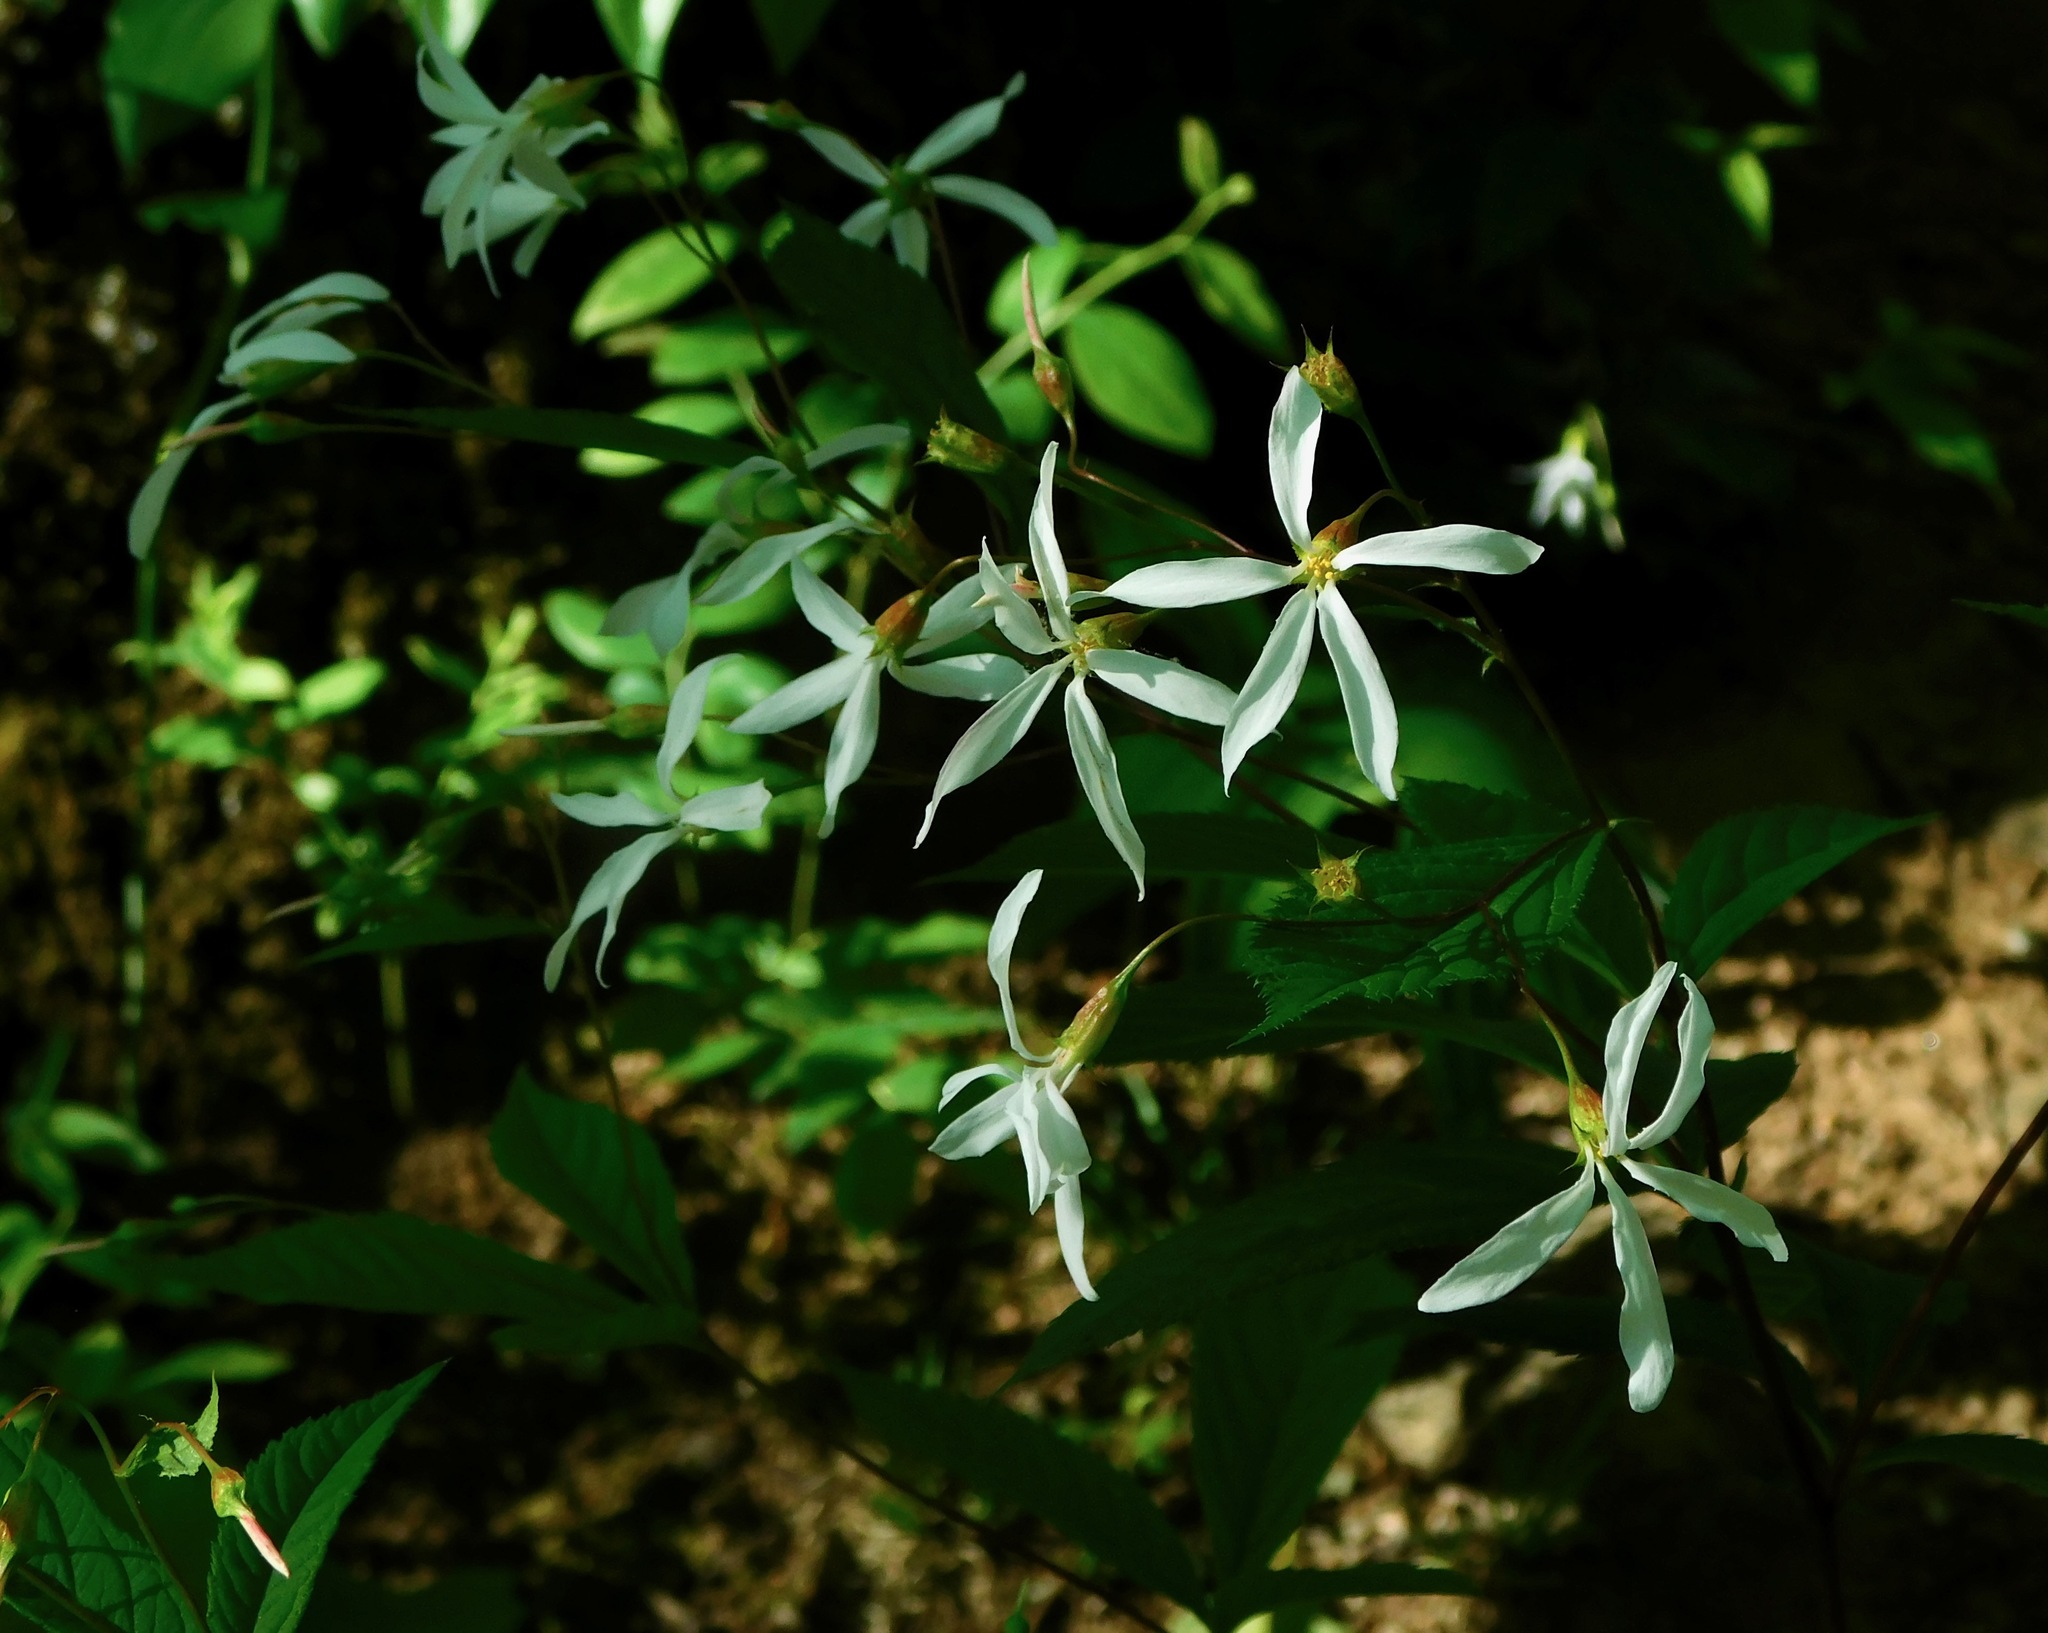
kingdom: Plantae
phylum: Tracheophyta
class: Magnoliopsida
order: Rosales
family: Rosaceae
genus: Gillenia
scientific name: Gillenia trifoliata
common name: Bowman's-root
